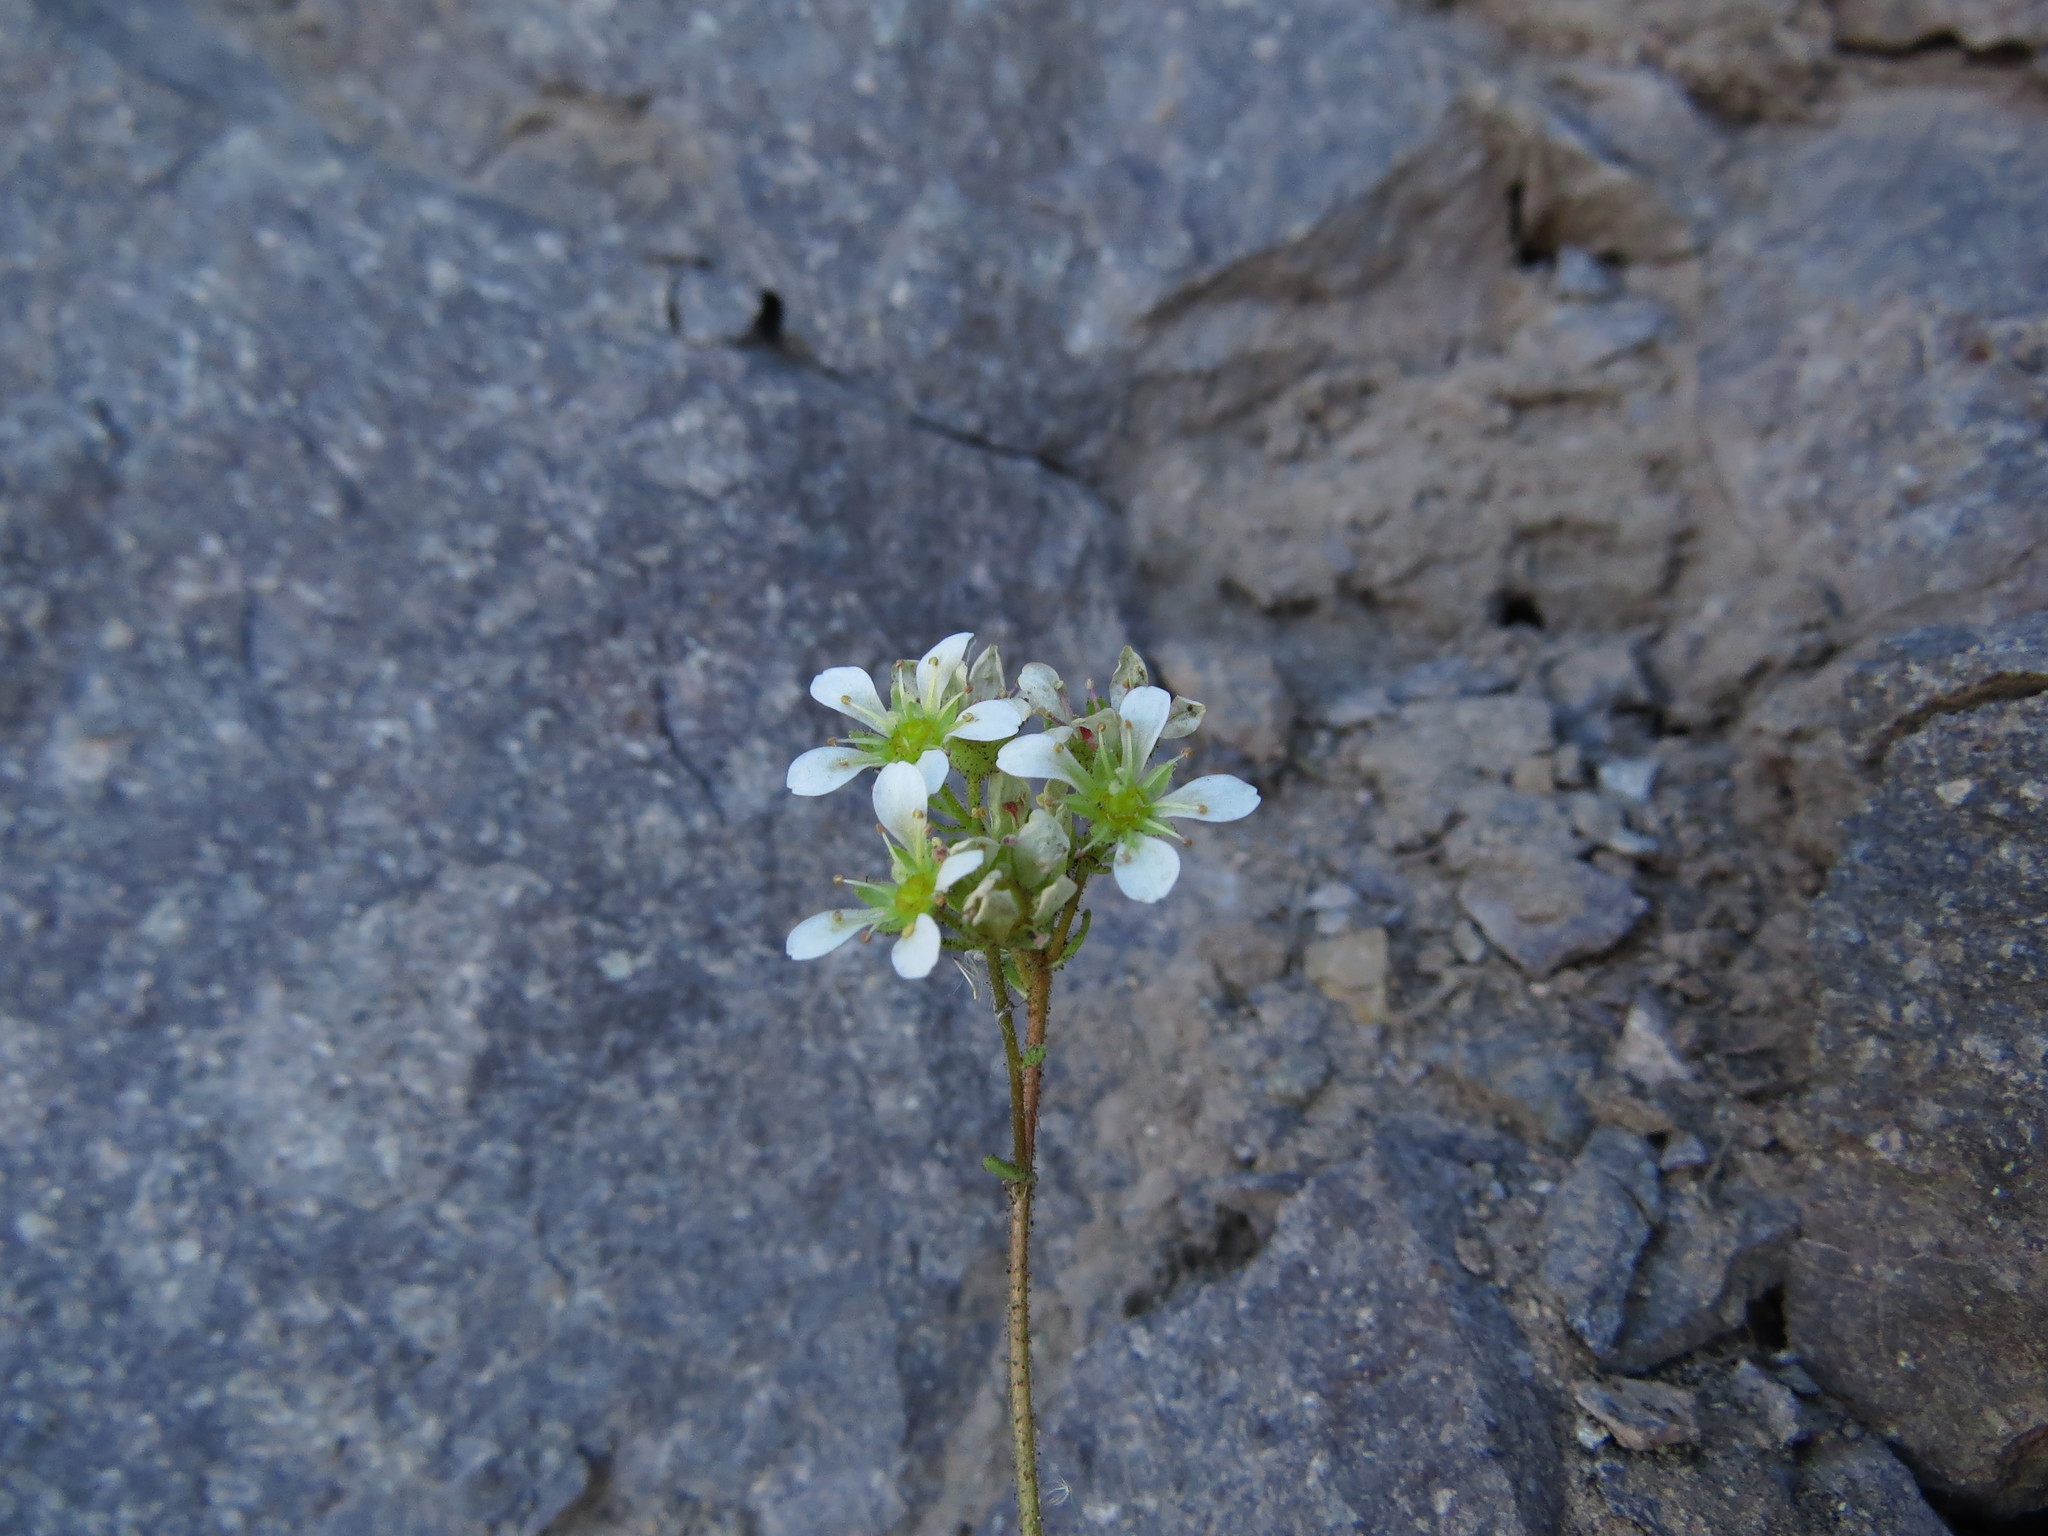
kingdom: Plantae
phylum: Tracheophyta
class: Magnoliopsida
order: Saxifragales
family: Saxifragaceae
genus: Saxifraga
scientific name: Saxifraga magellanica
